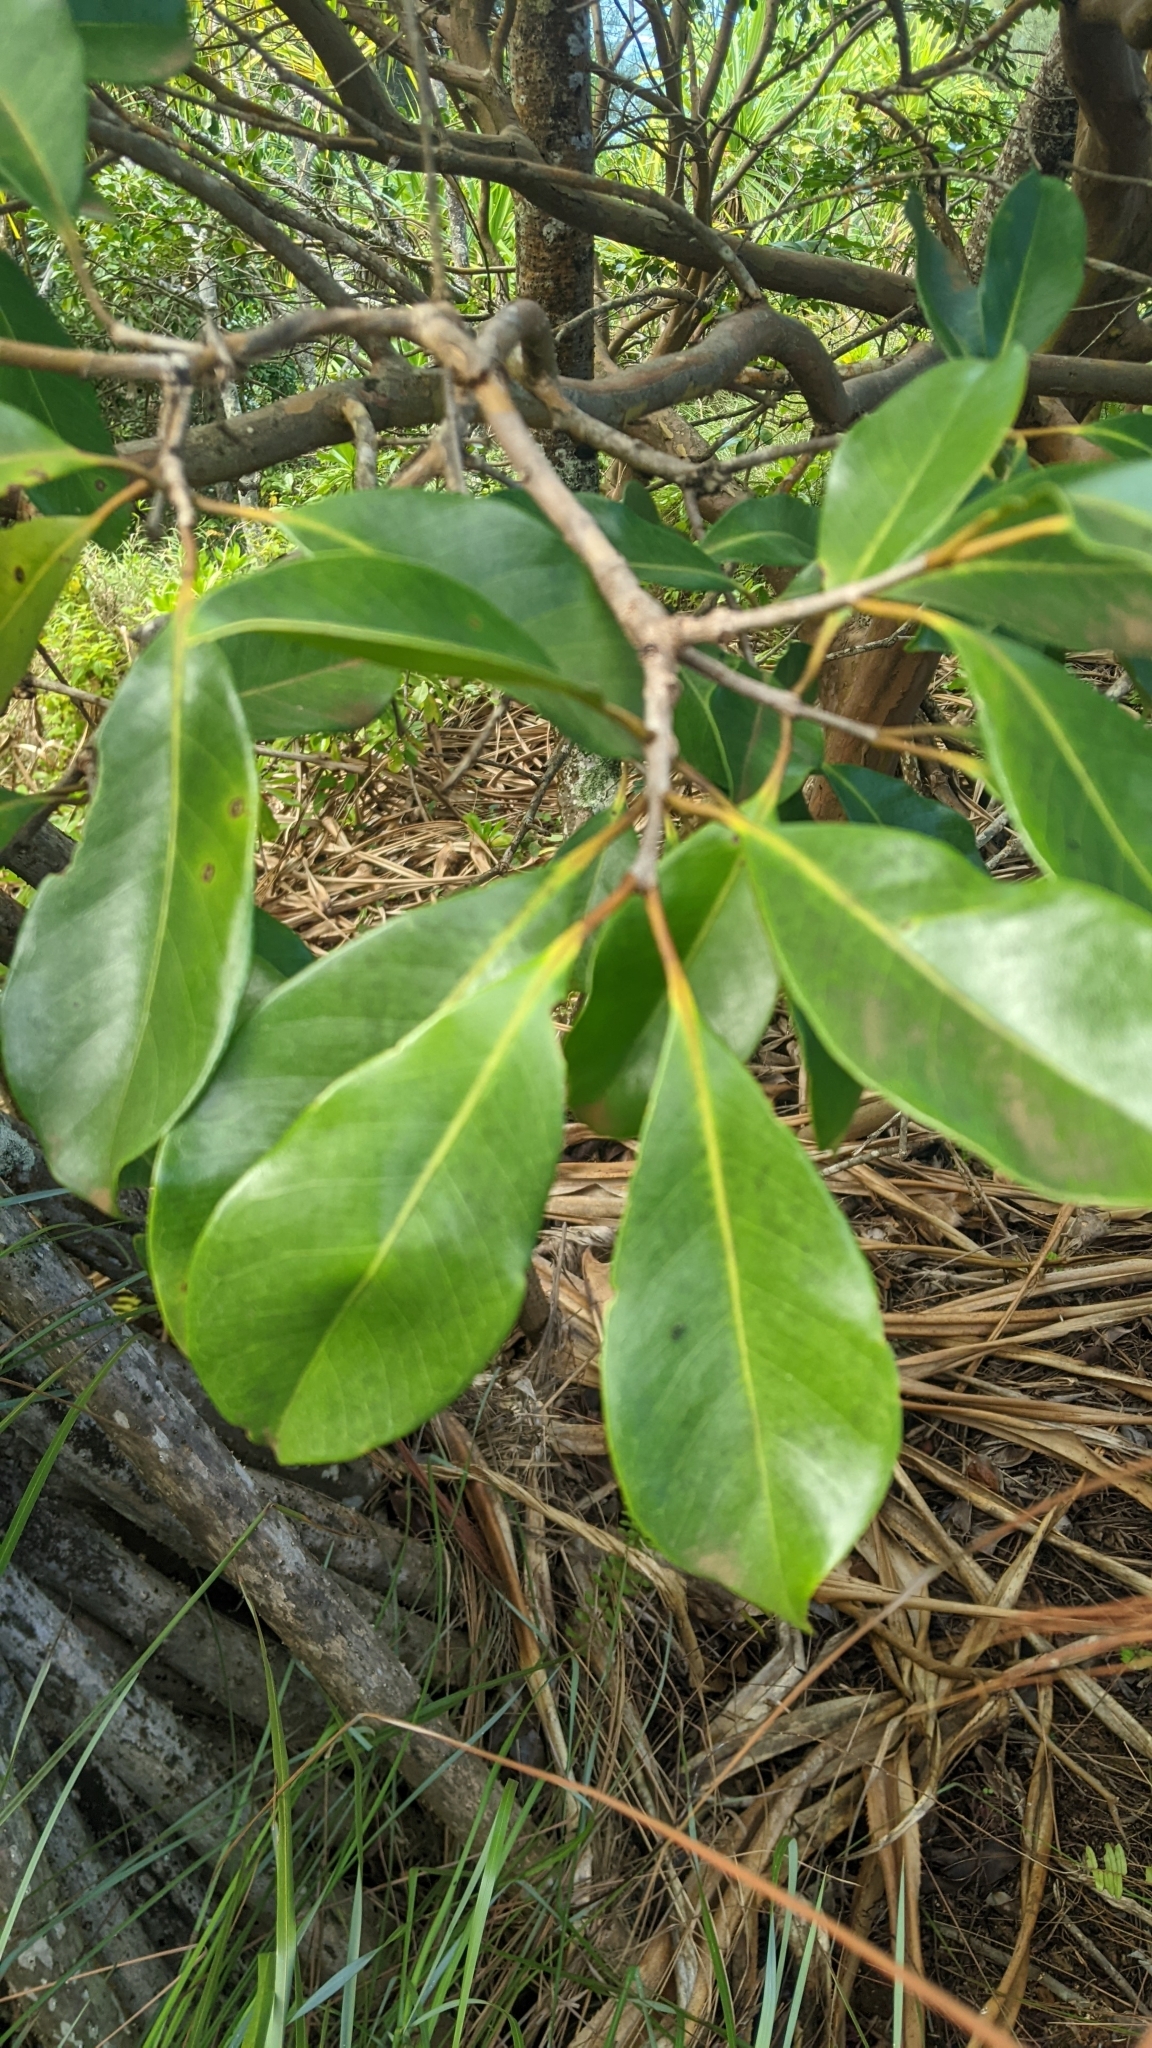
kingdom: Plantae
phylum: Tracheophyta
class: Magnoliopsida
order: Myrtales
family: Myrtaceae
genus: Psidium
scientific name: Psidium cattleianum
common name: Strawberry guava
